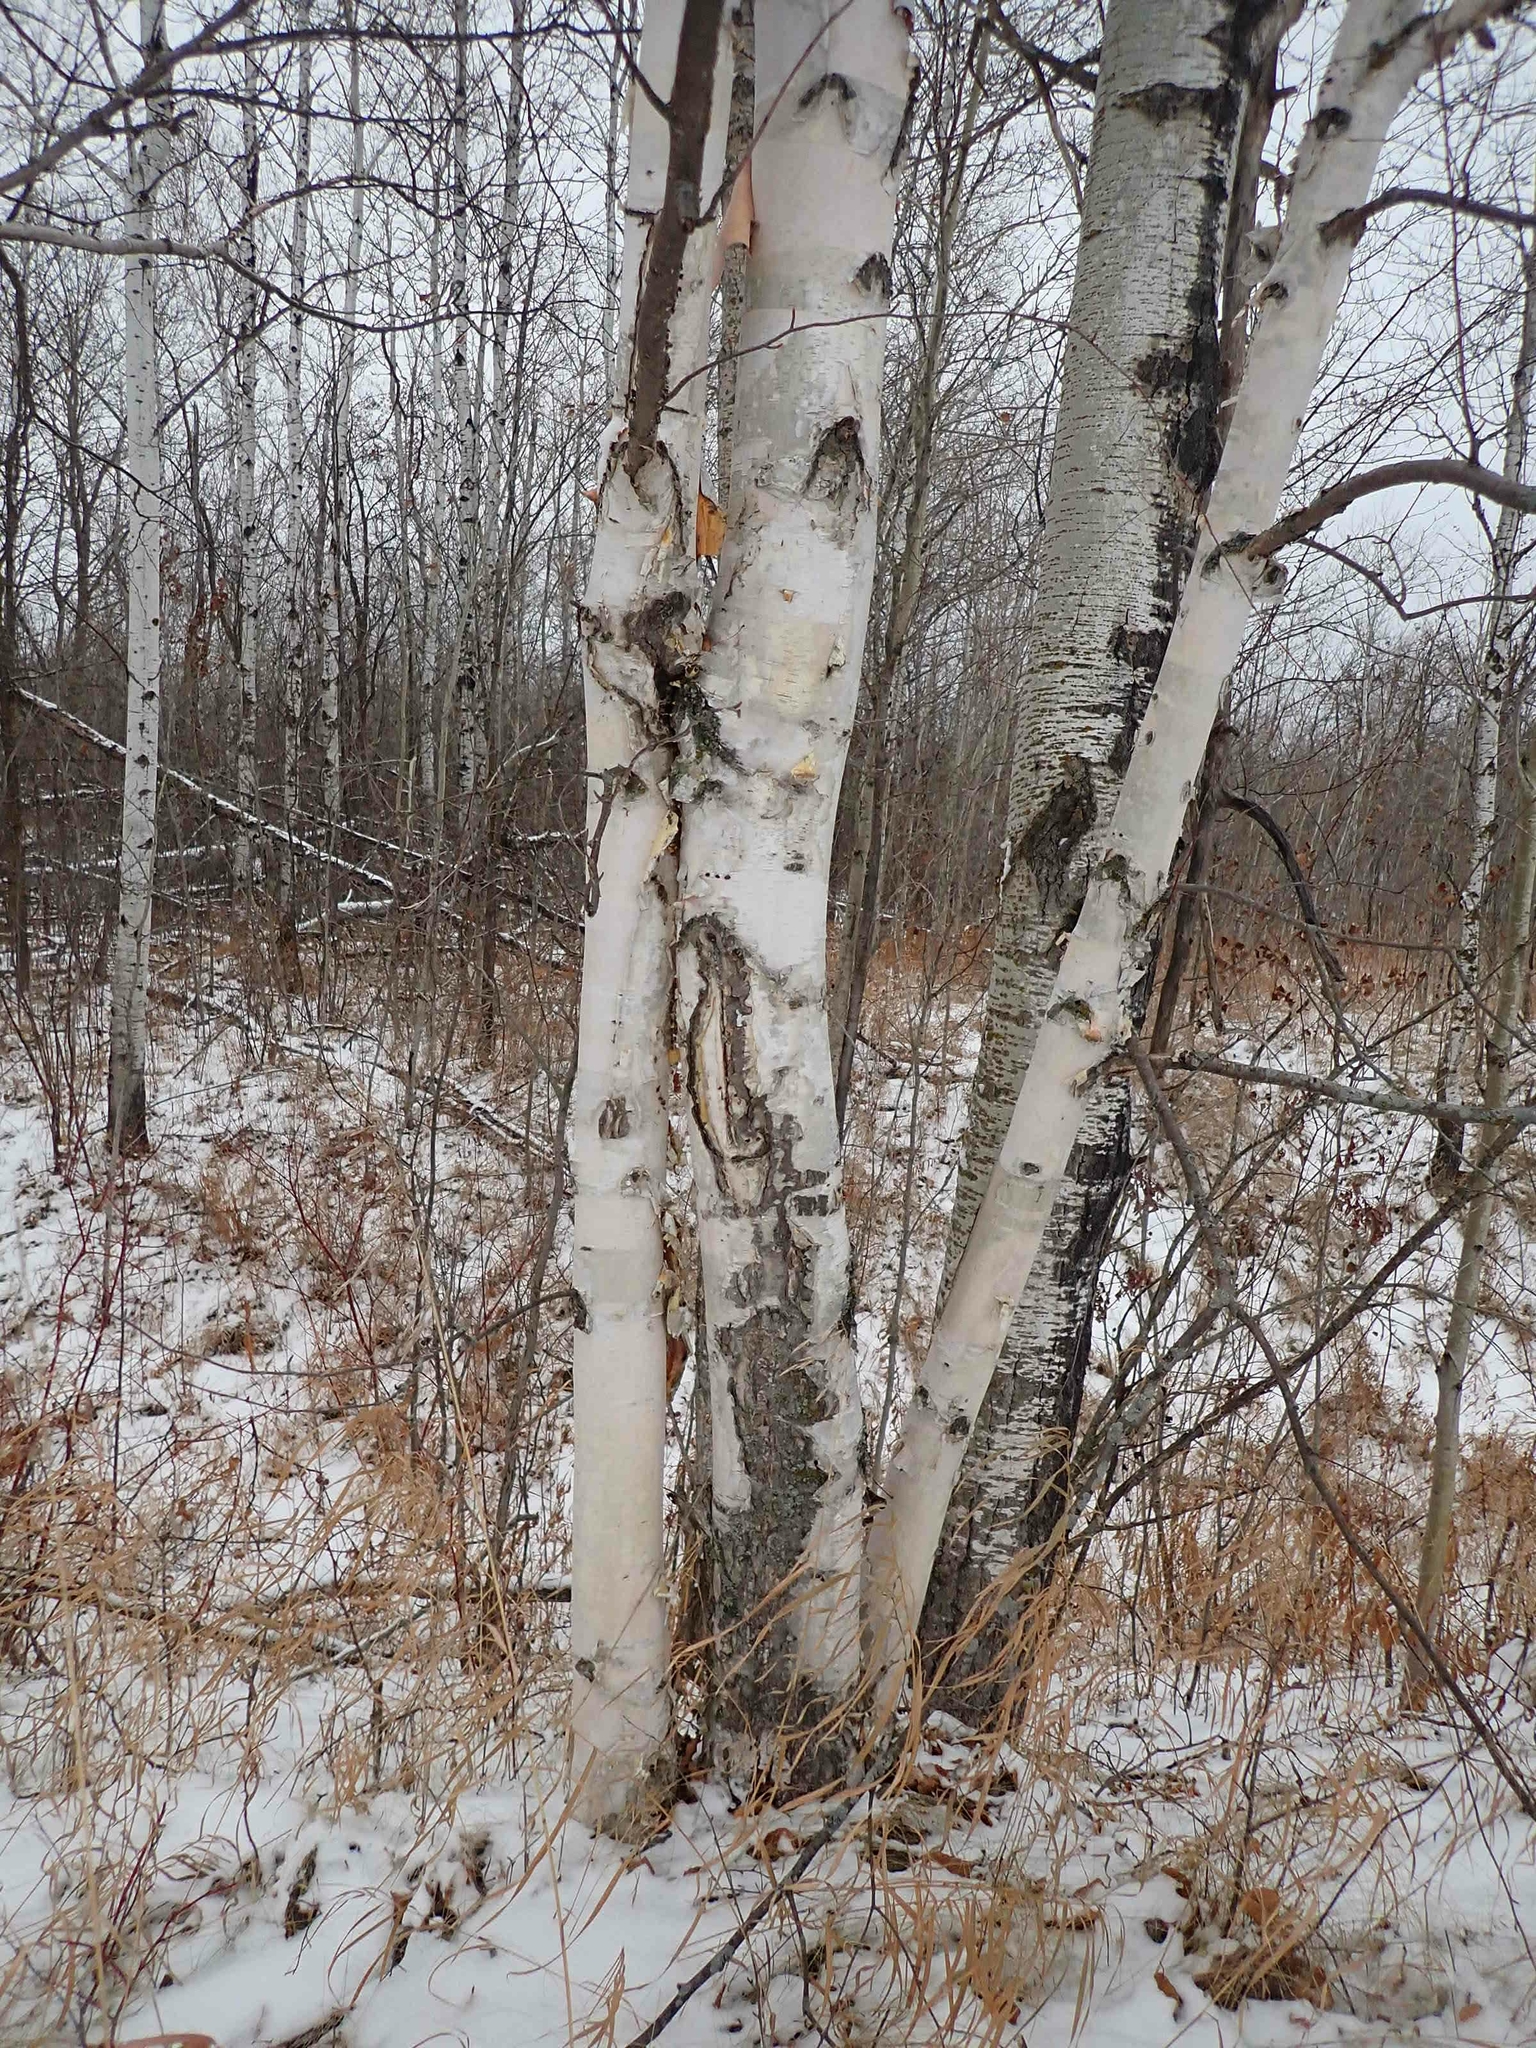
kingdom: Plantae
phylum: Tracheophyta
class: Magnoliopsida
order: Fagales
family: Betulaceae
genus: Betula
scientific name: Betula papyrifera
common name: Paper birch
